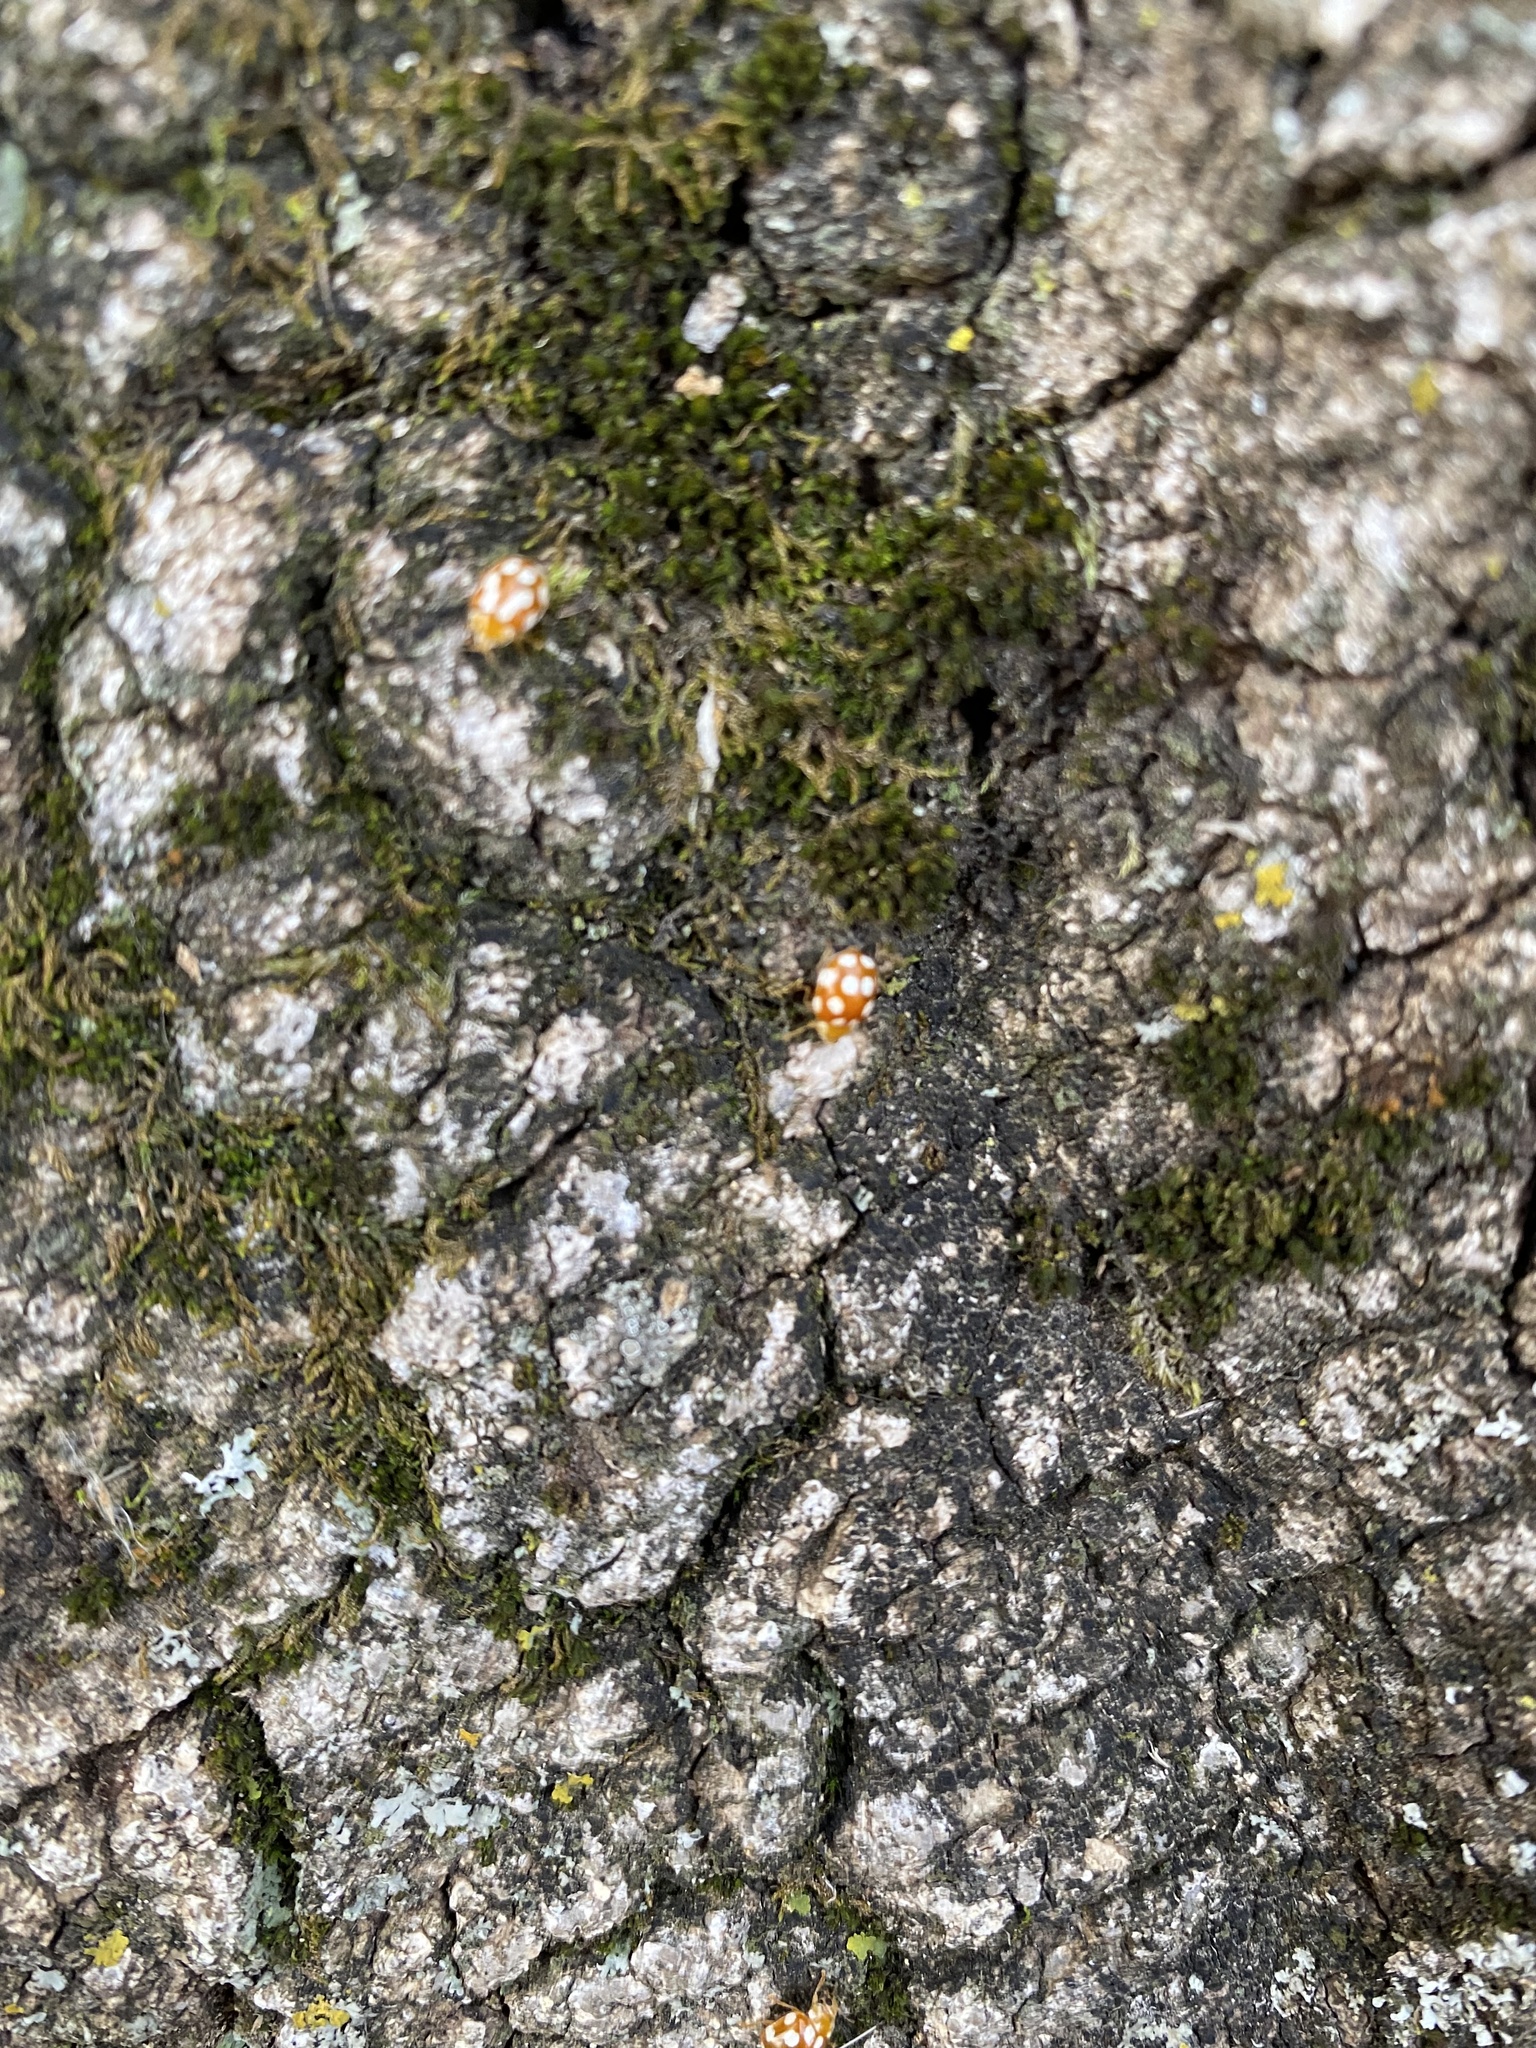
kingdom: Animalia
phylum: Arthropoda
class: Insecta
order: Coleoptera
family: Coccinellidae
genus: Vibidia
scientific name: Vibidia duodecimguttata
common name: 12-spot ladybird
